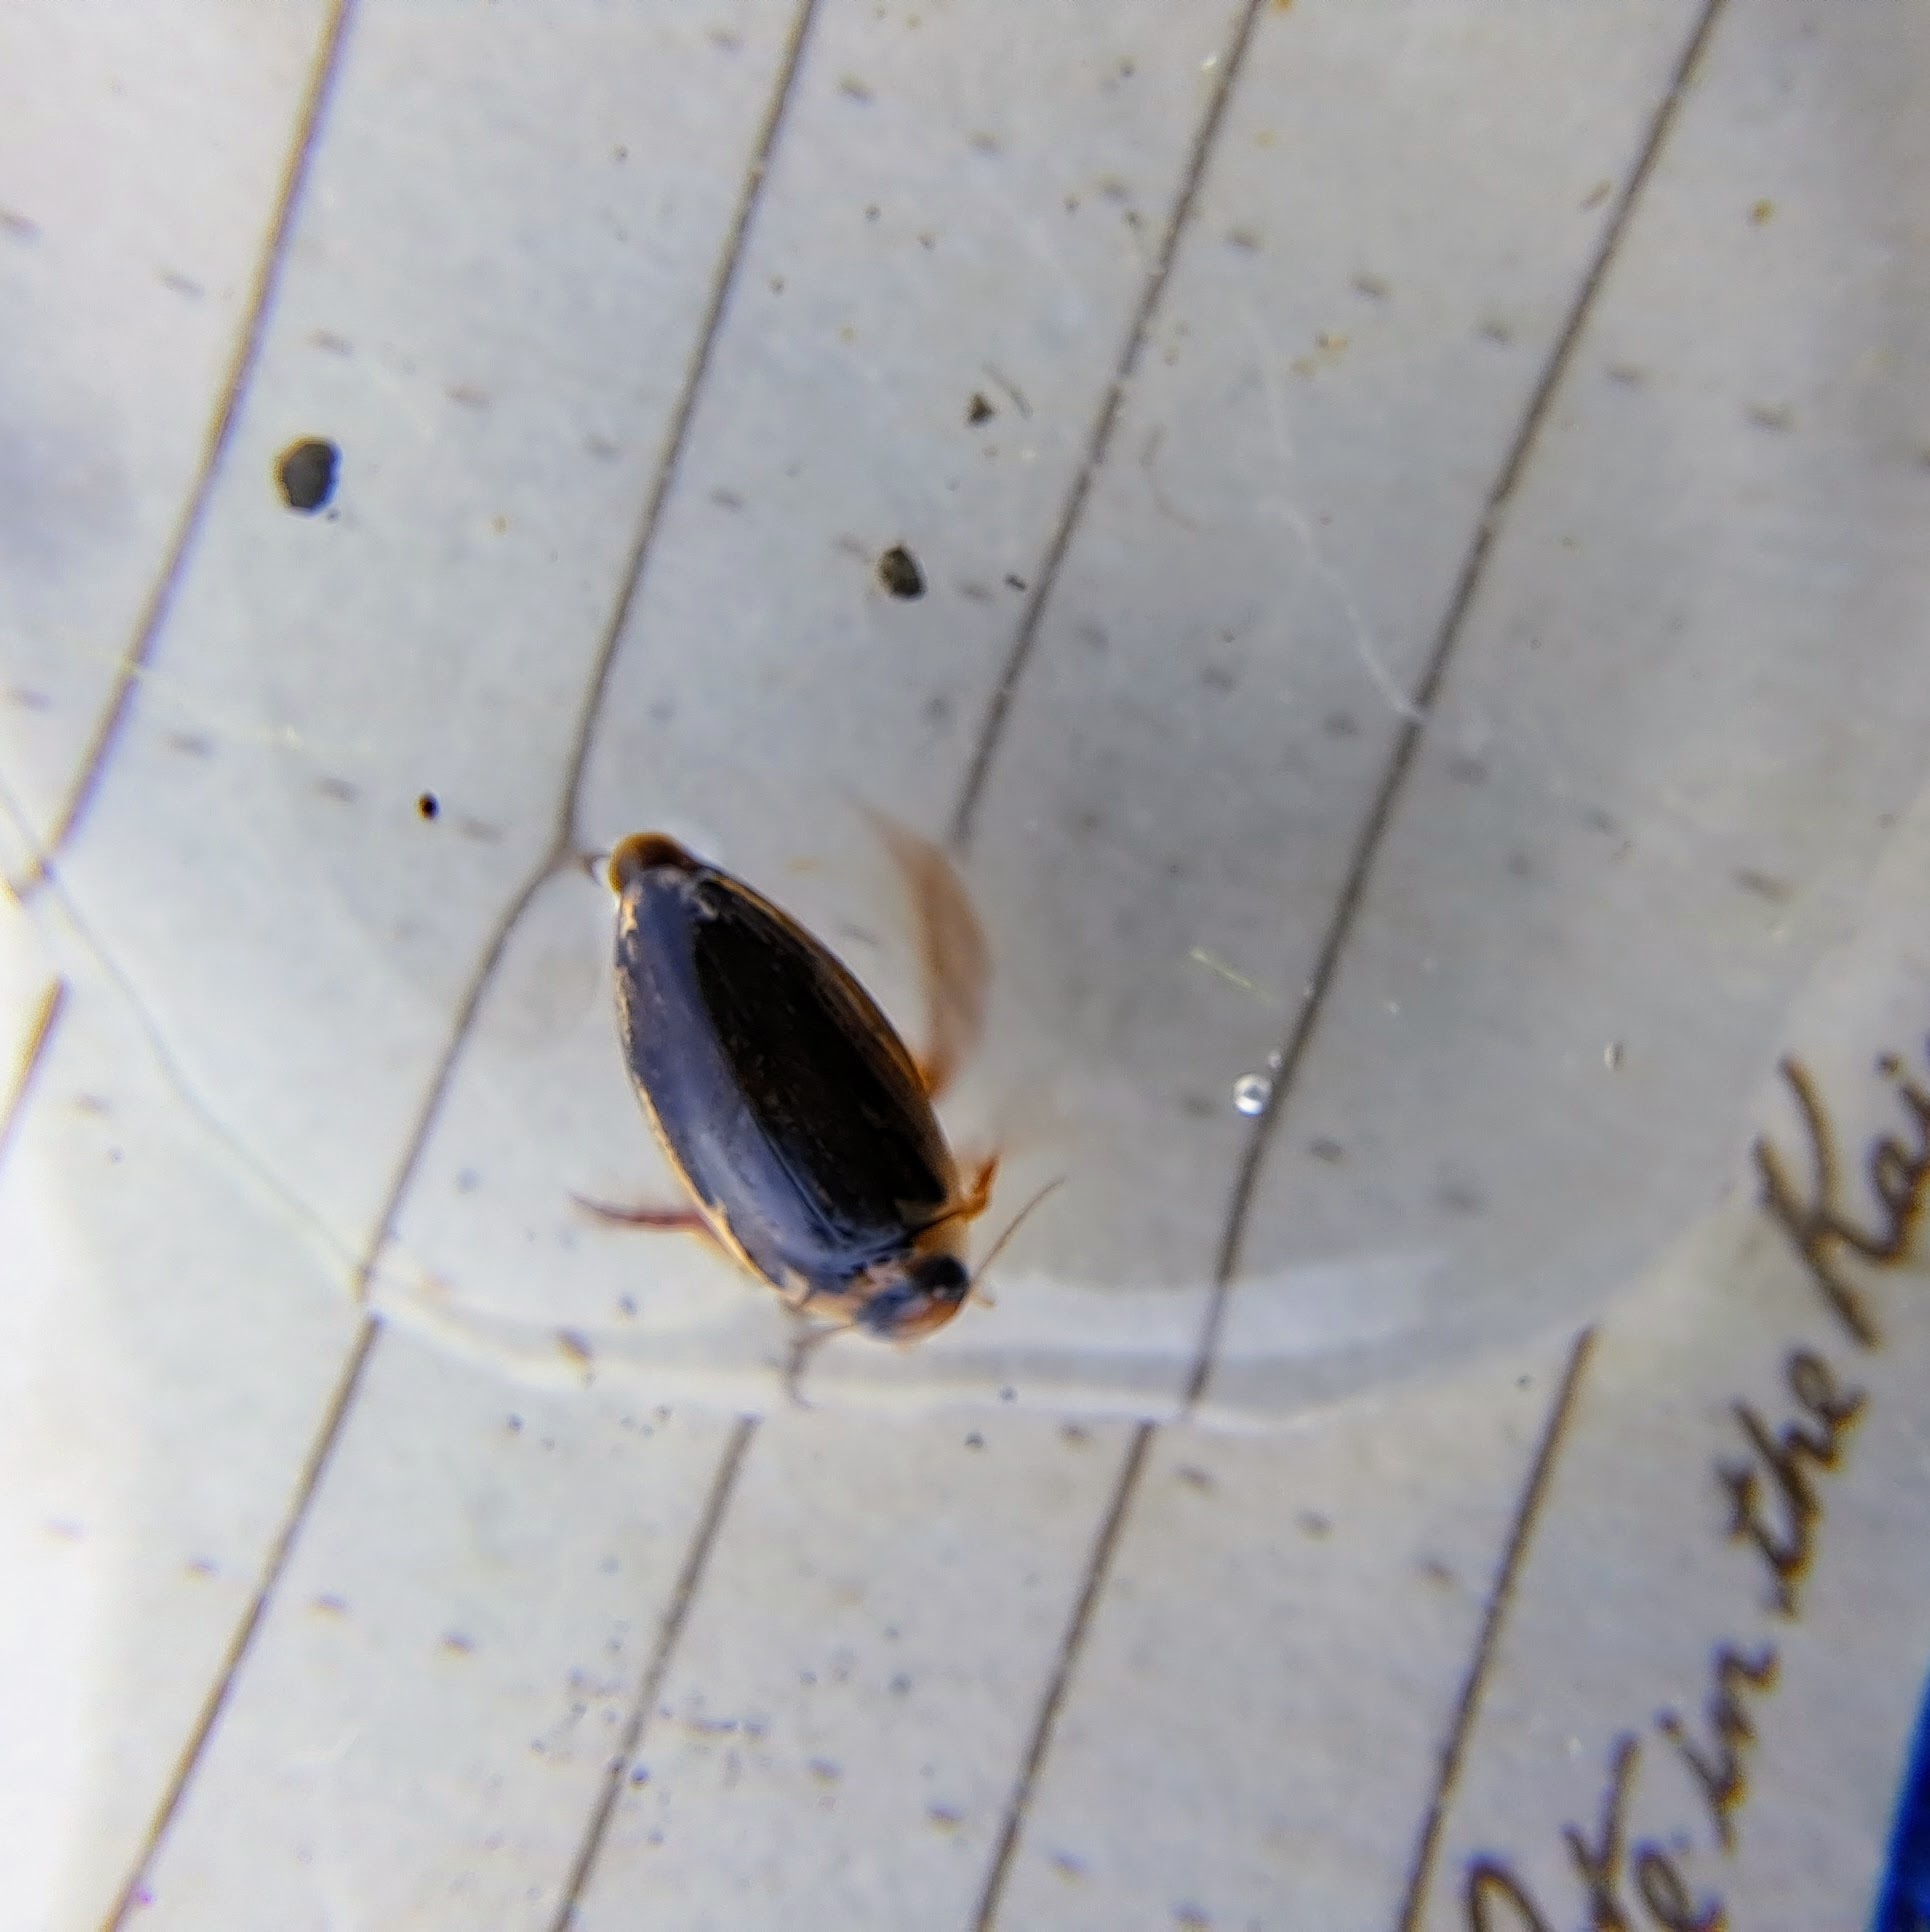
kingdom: Animalia
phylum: Arthropoda
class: Insecta
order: Coleoptera
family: Dytiscidae
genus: Coptotomus
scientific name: Coptotomus longulus
